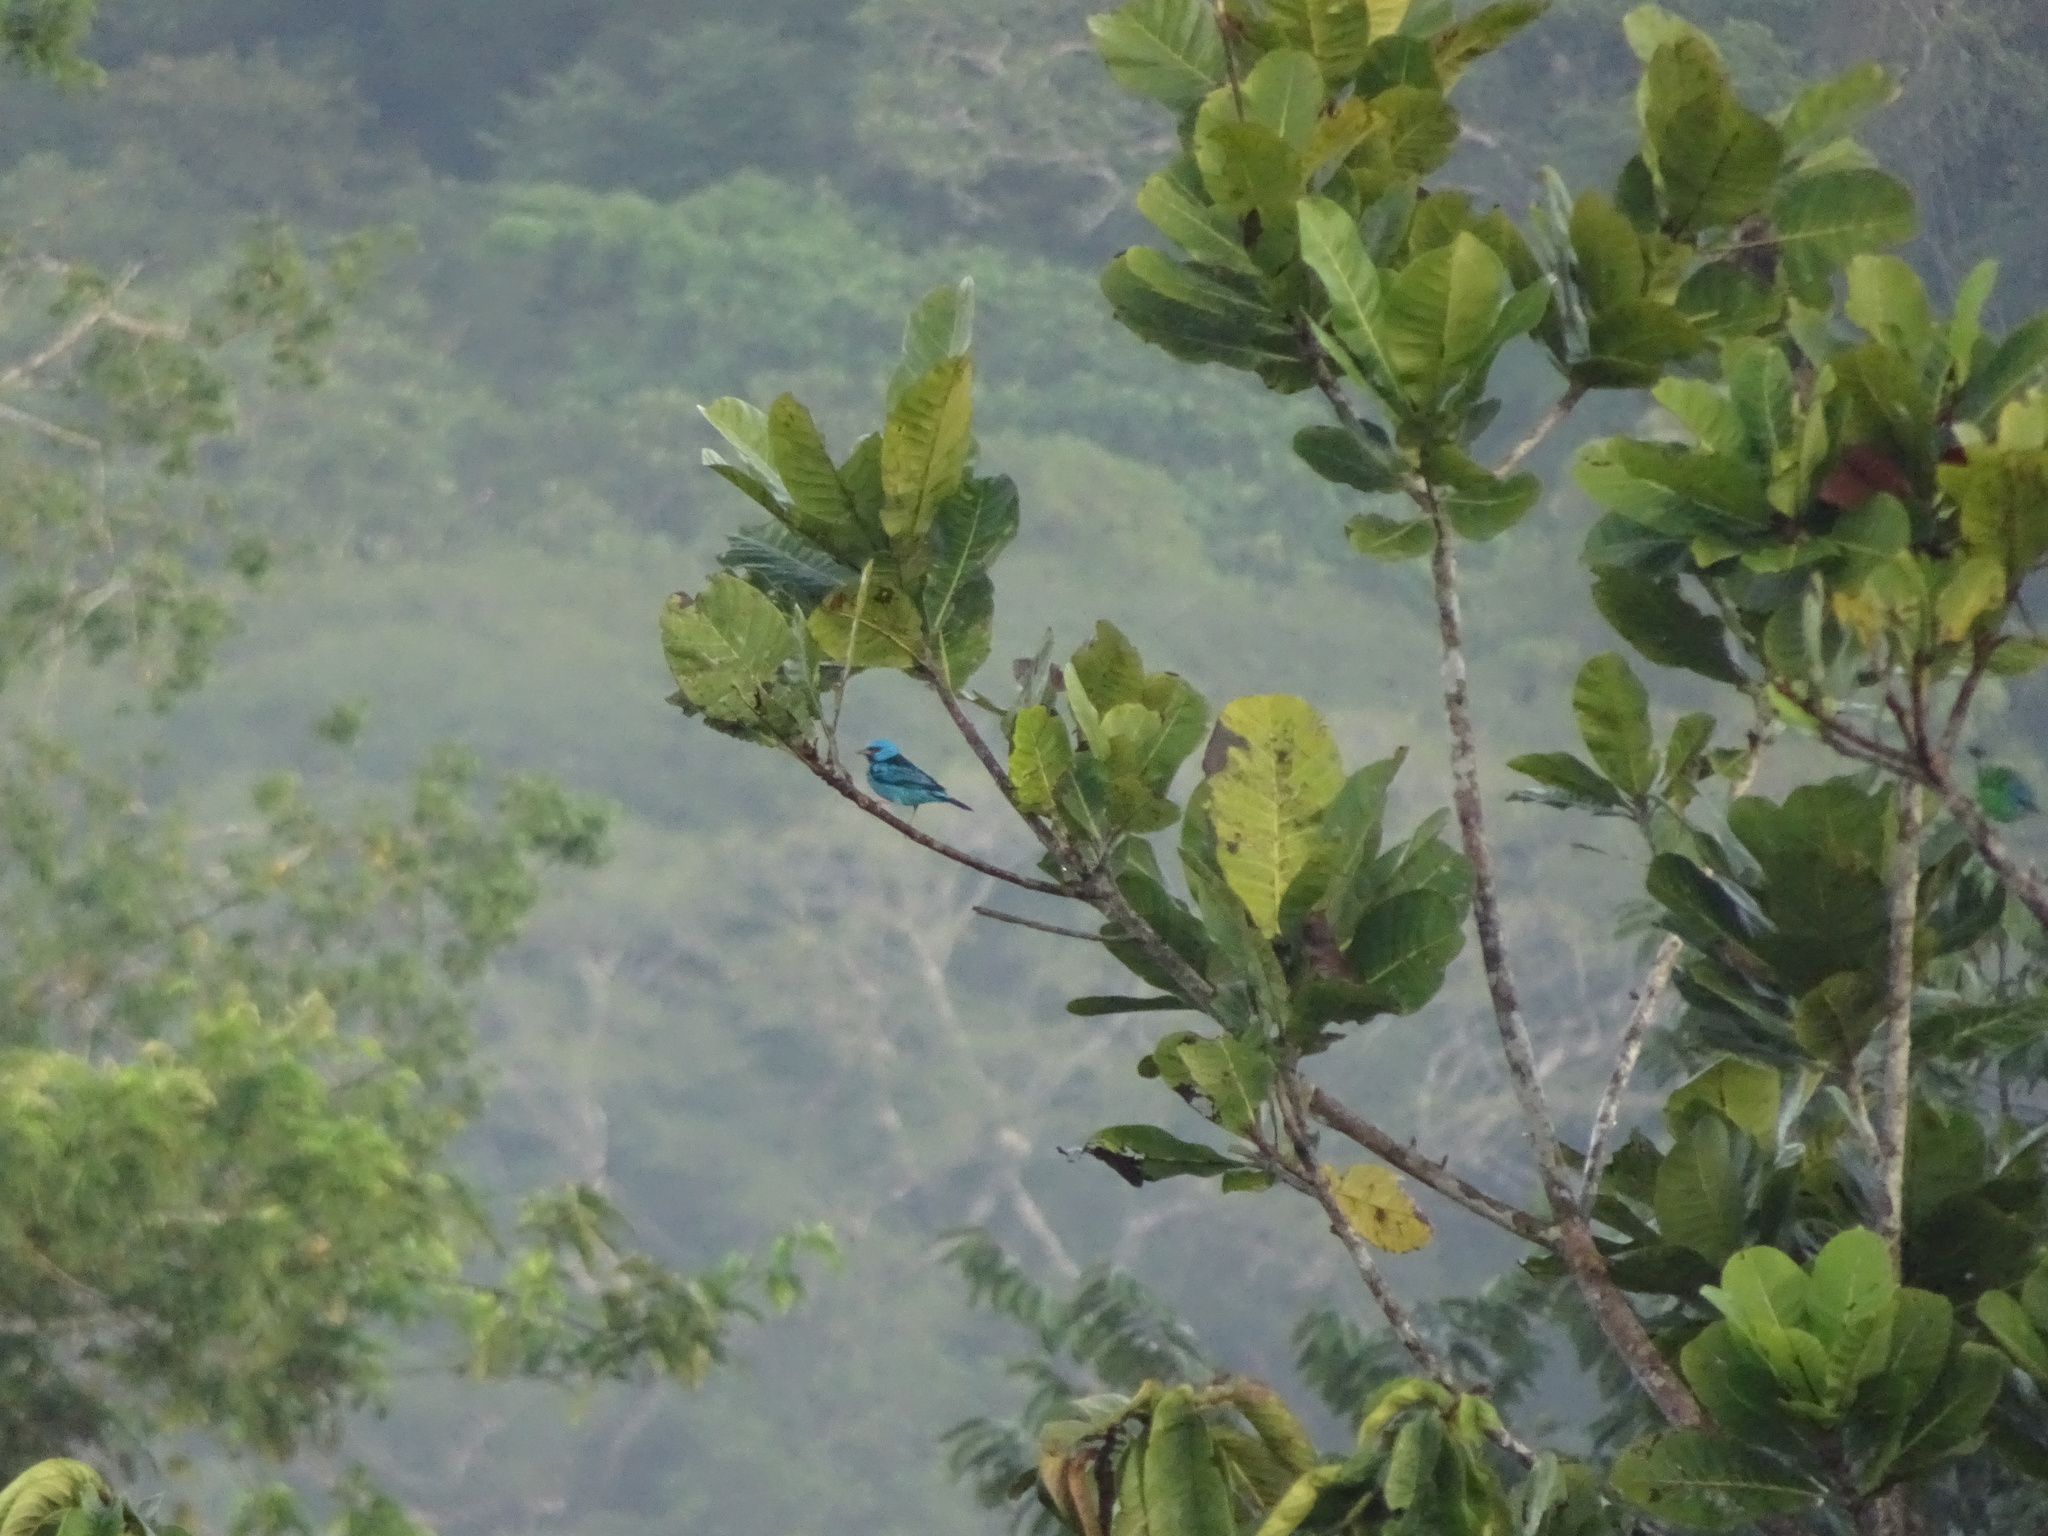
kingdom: Animalia
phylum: Chordata
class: Aves
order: Passeriformes
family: Thraupidae
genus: Dacnis
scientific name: Dacnis cayana
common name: Blue dacnis
